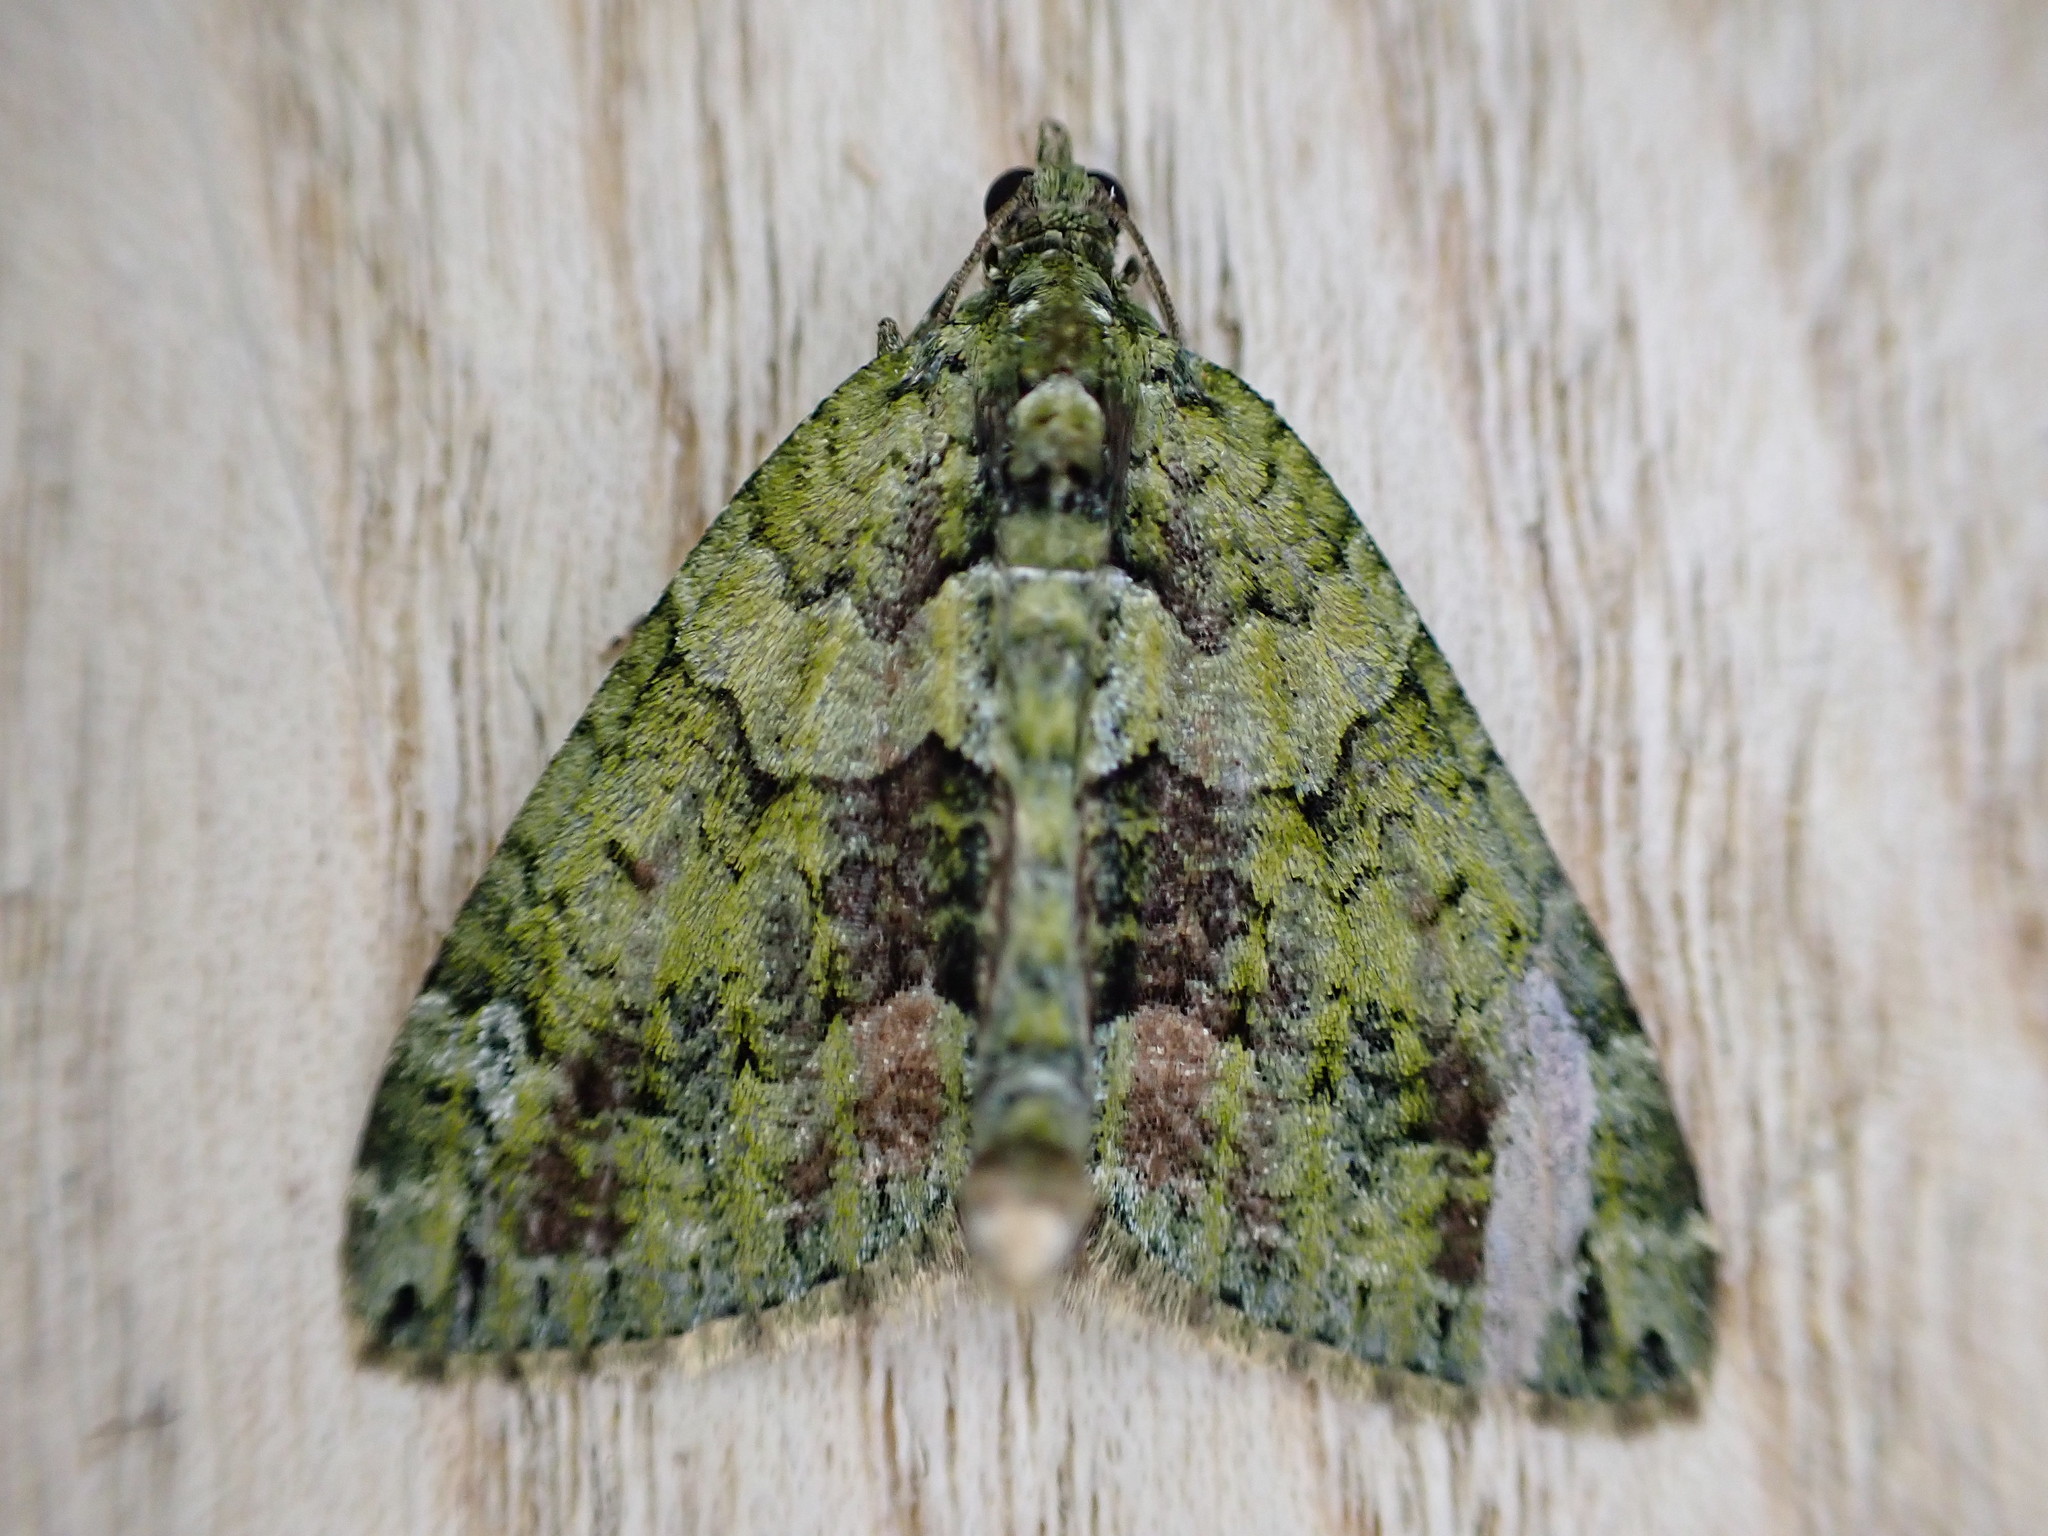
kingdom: Animalia
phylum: Arthropoda
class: Insecta
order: Lepidoptera
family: Geometridae
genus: Chloroclysta
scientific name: Chloroclysta siterata
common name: Red-green carpet
